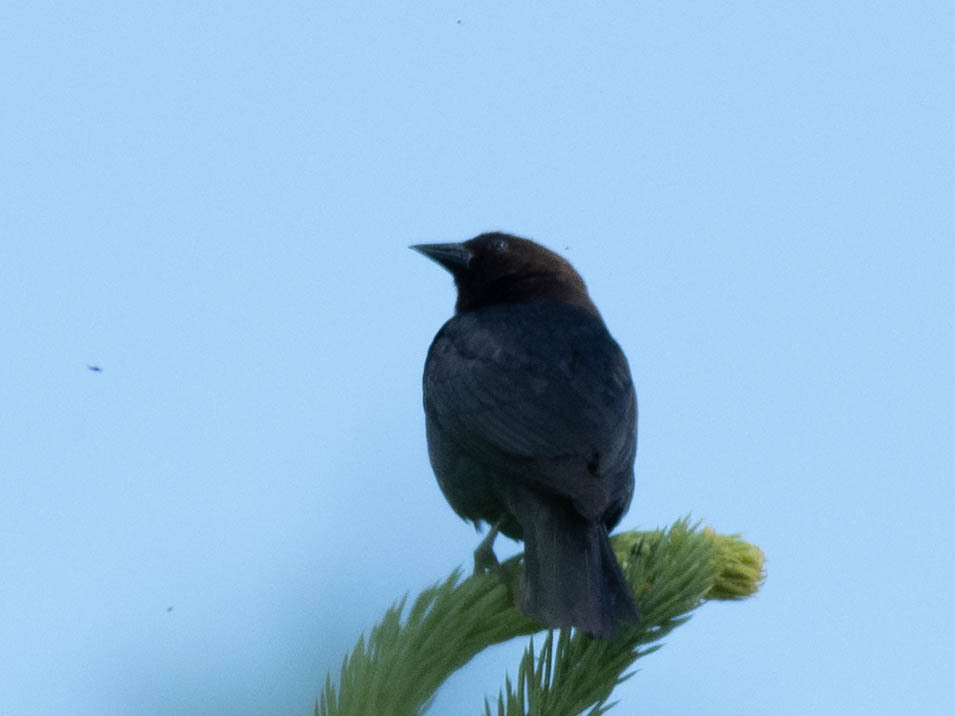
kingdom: Animalia
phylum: Chordata
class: Aves
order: Passeriformes
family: Icteridae
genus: Molothrus
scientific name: Molothrus ater
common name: Brown-headed cowbird
